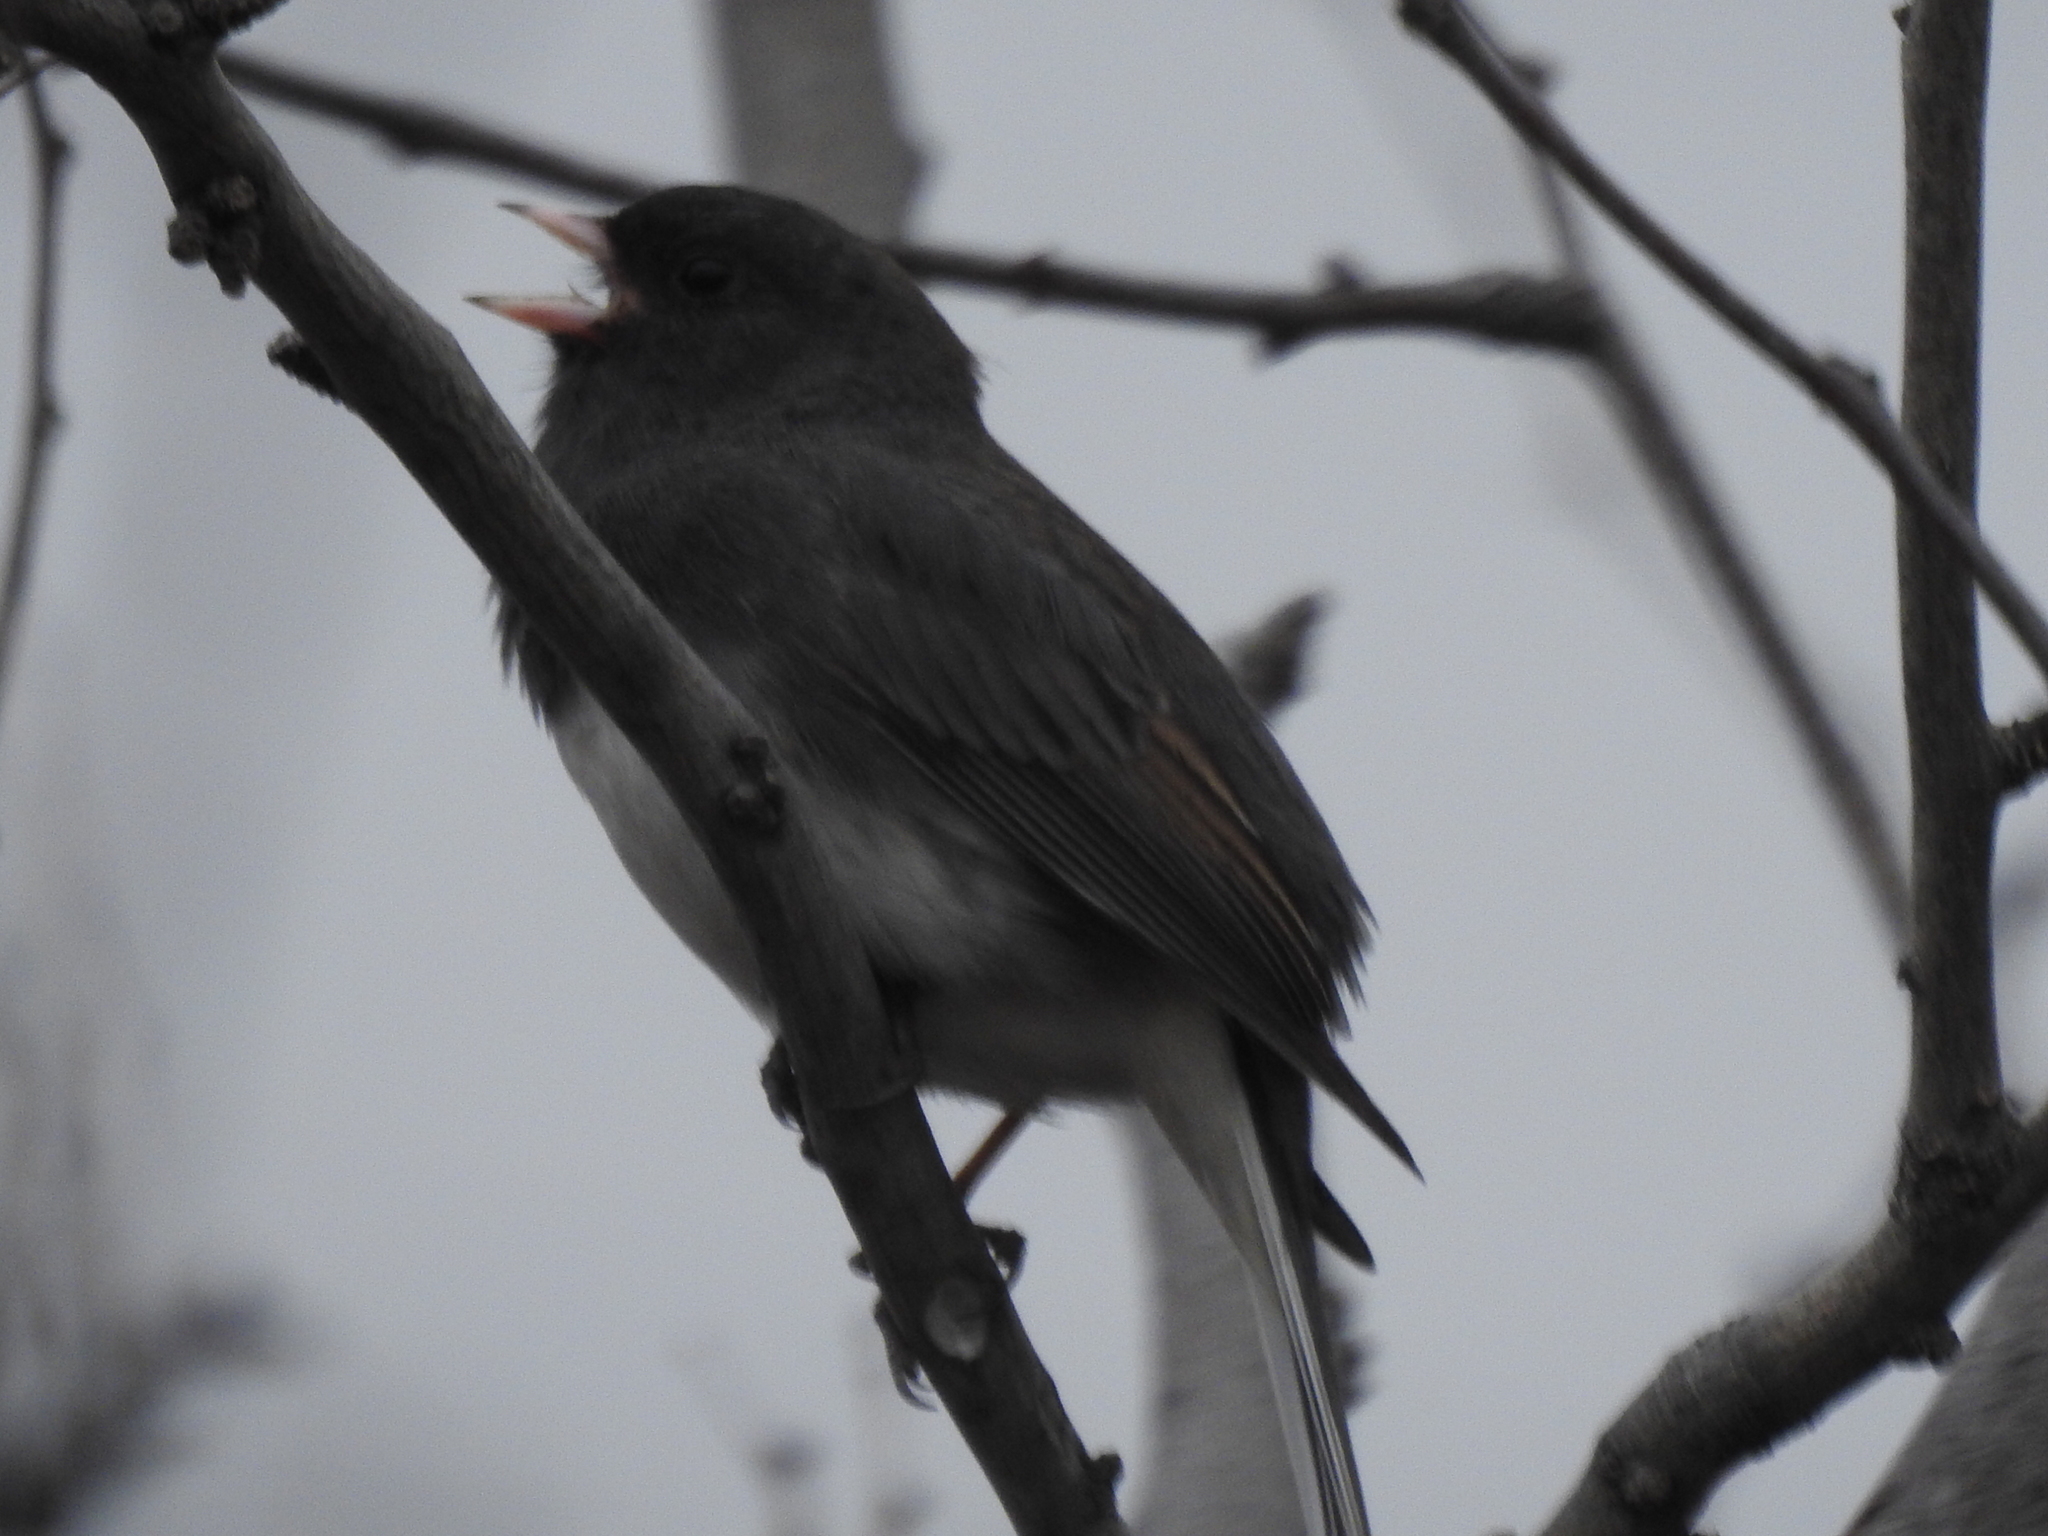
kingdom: Animalia
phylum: Chordata
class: Aves
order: Passeriformes
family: Passerellidae
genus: Junco
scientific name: Junco hyemalis
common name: Dark-eyed junco
